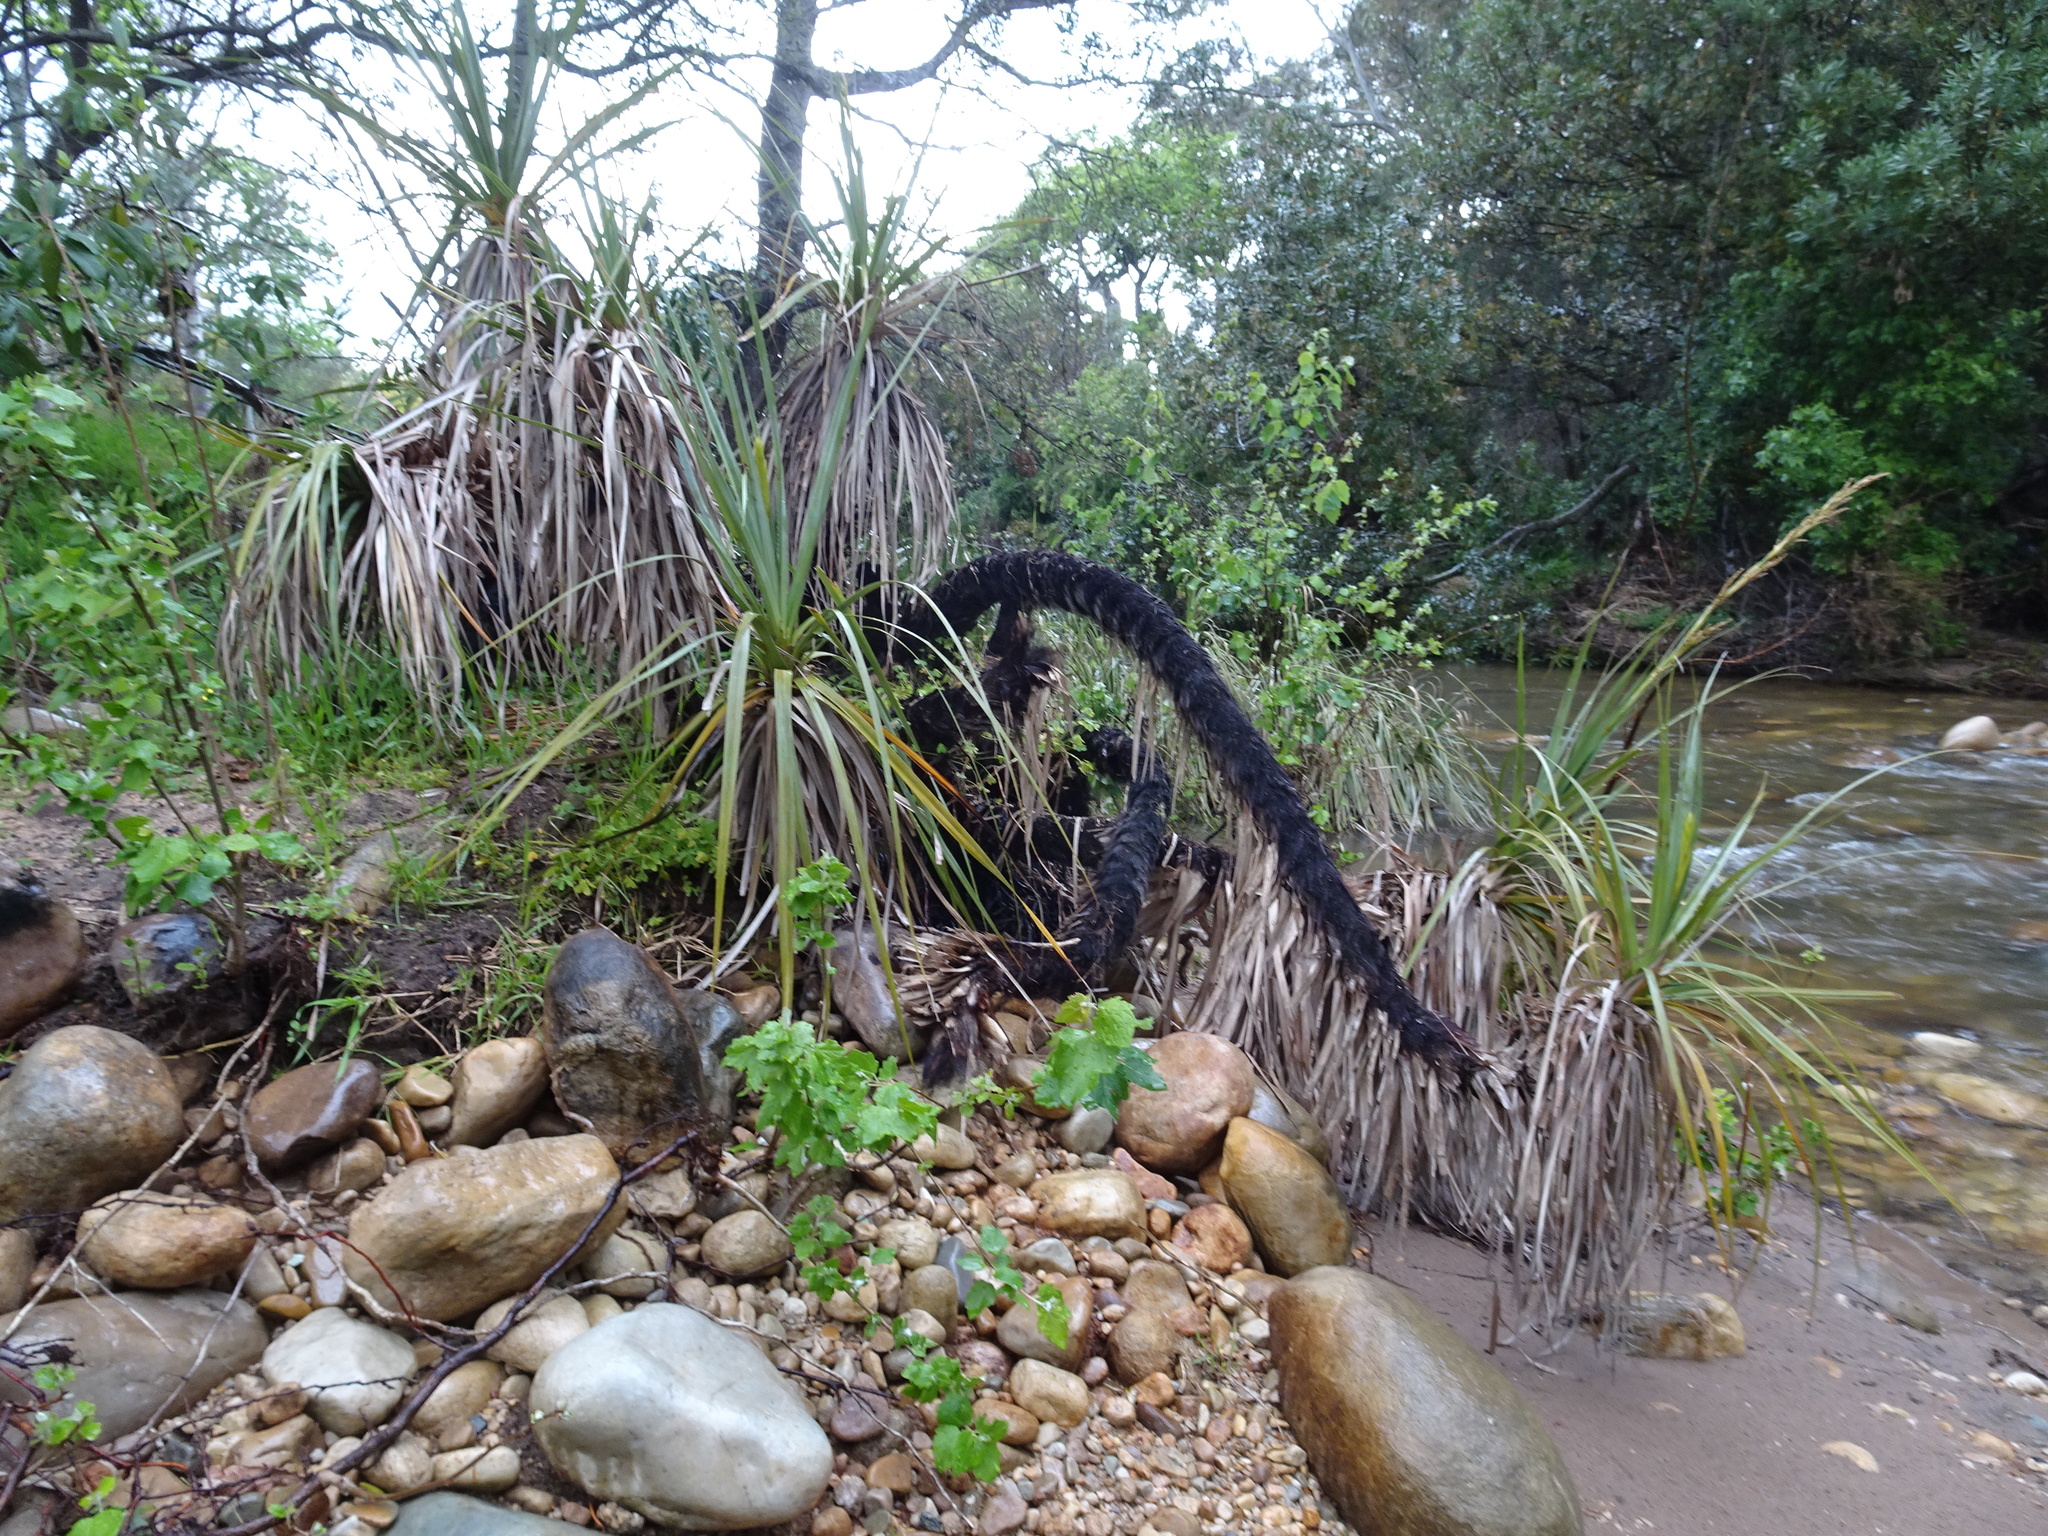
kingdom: Plantae
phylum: Tracheophyta
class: Liliopsida
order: Poales
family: Thurniaceae
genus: Prionium
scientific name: Prionium serratum
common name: Palmiet
